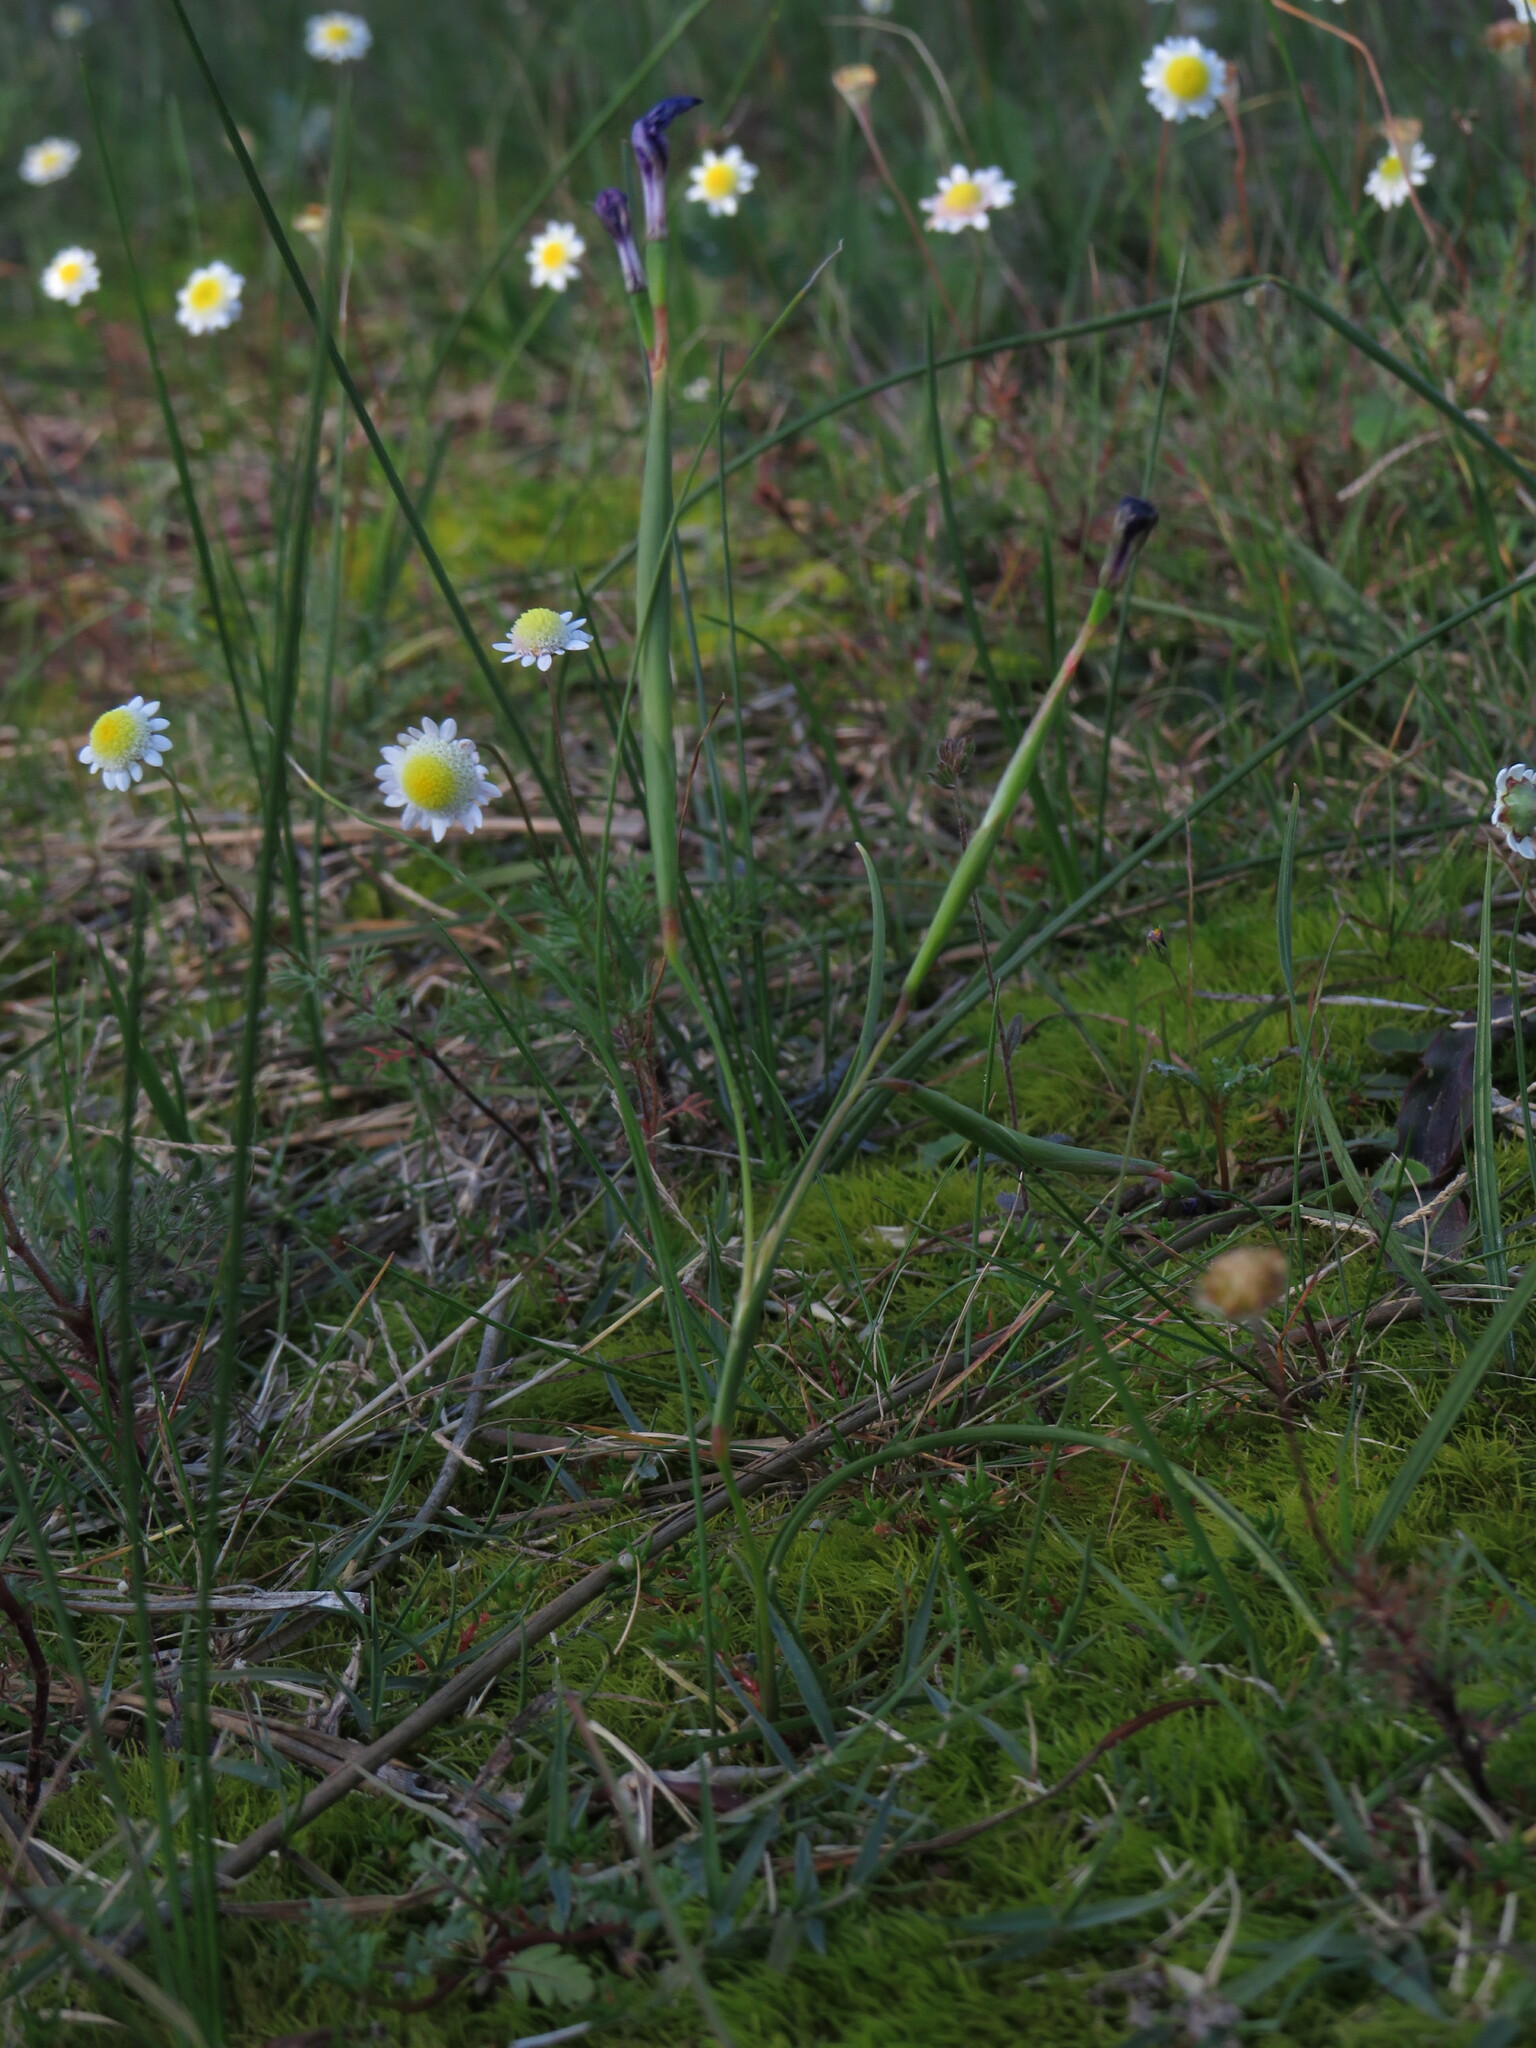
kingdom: Plantae
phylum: Tracheophyta
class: Liliopsida
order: Asparagales
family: Iridaceae
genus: Moraea
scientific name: Moraea lugubris
